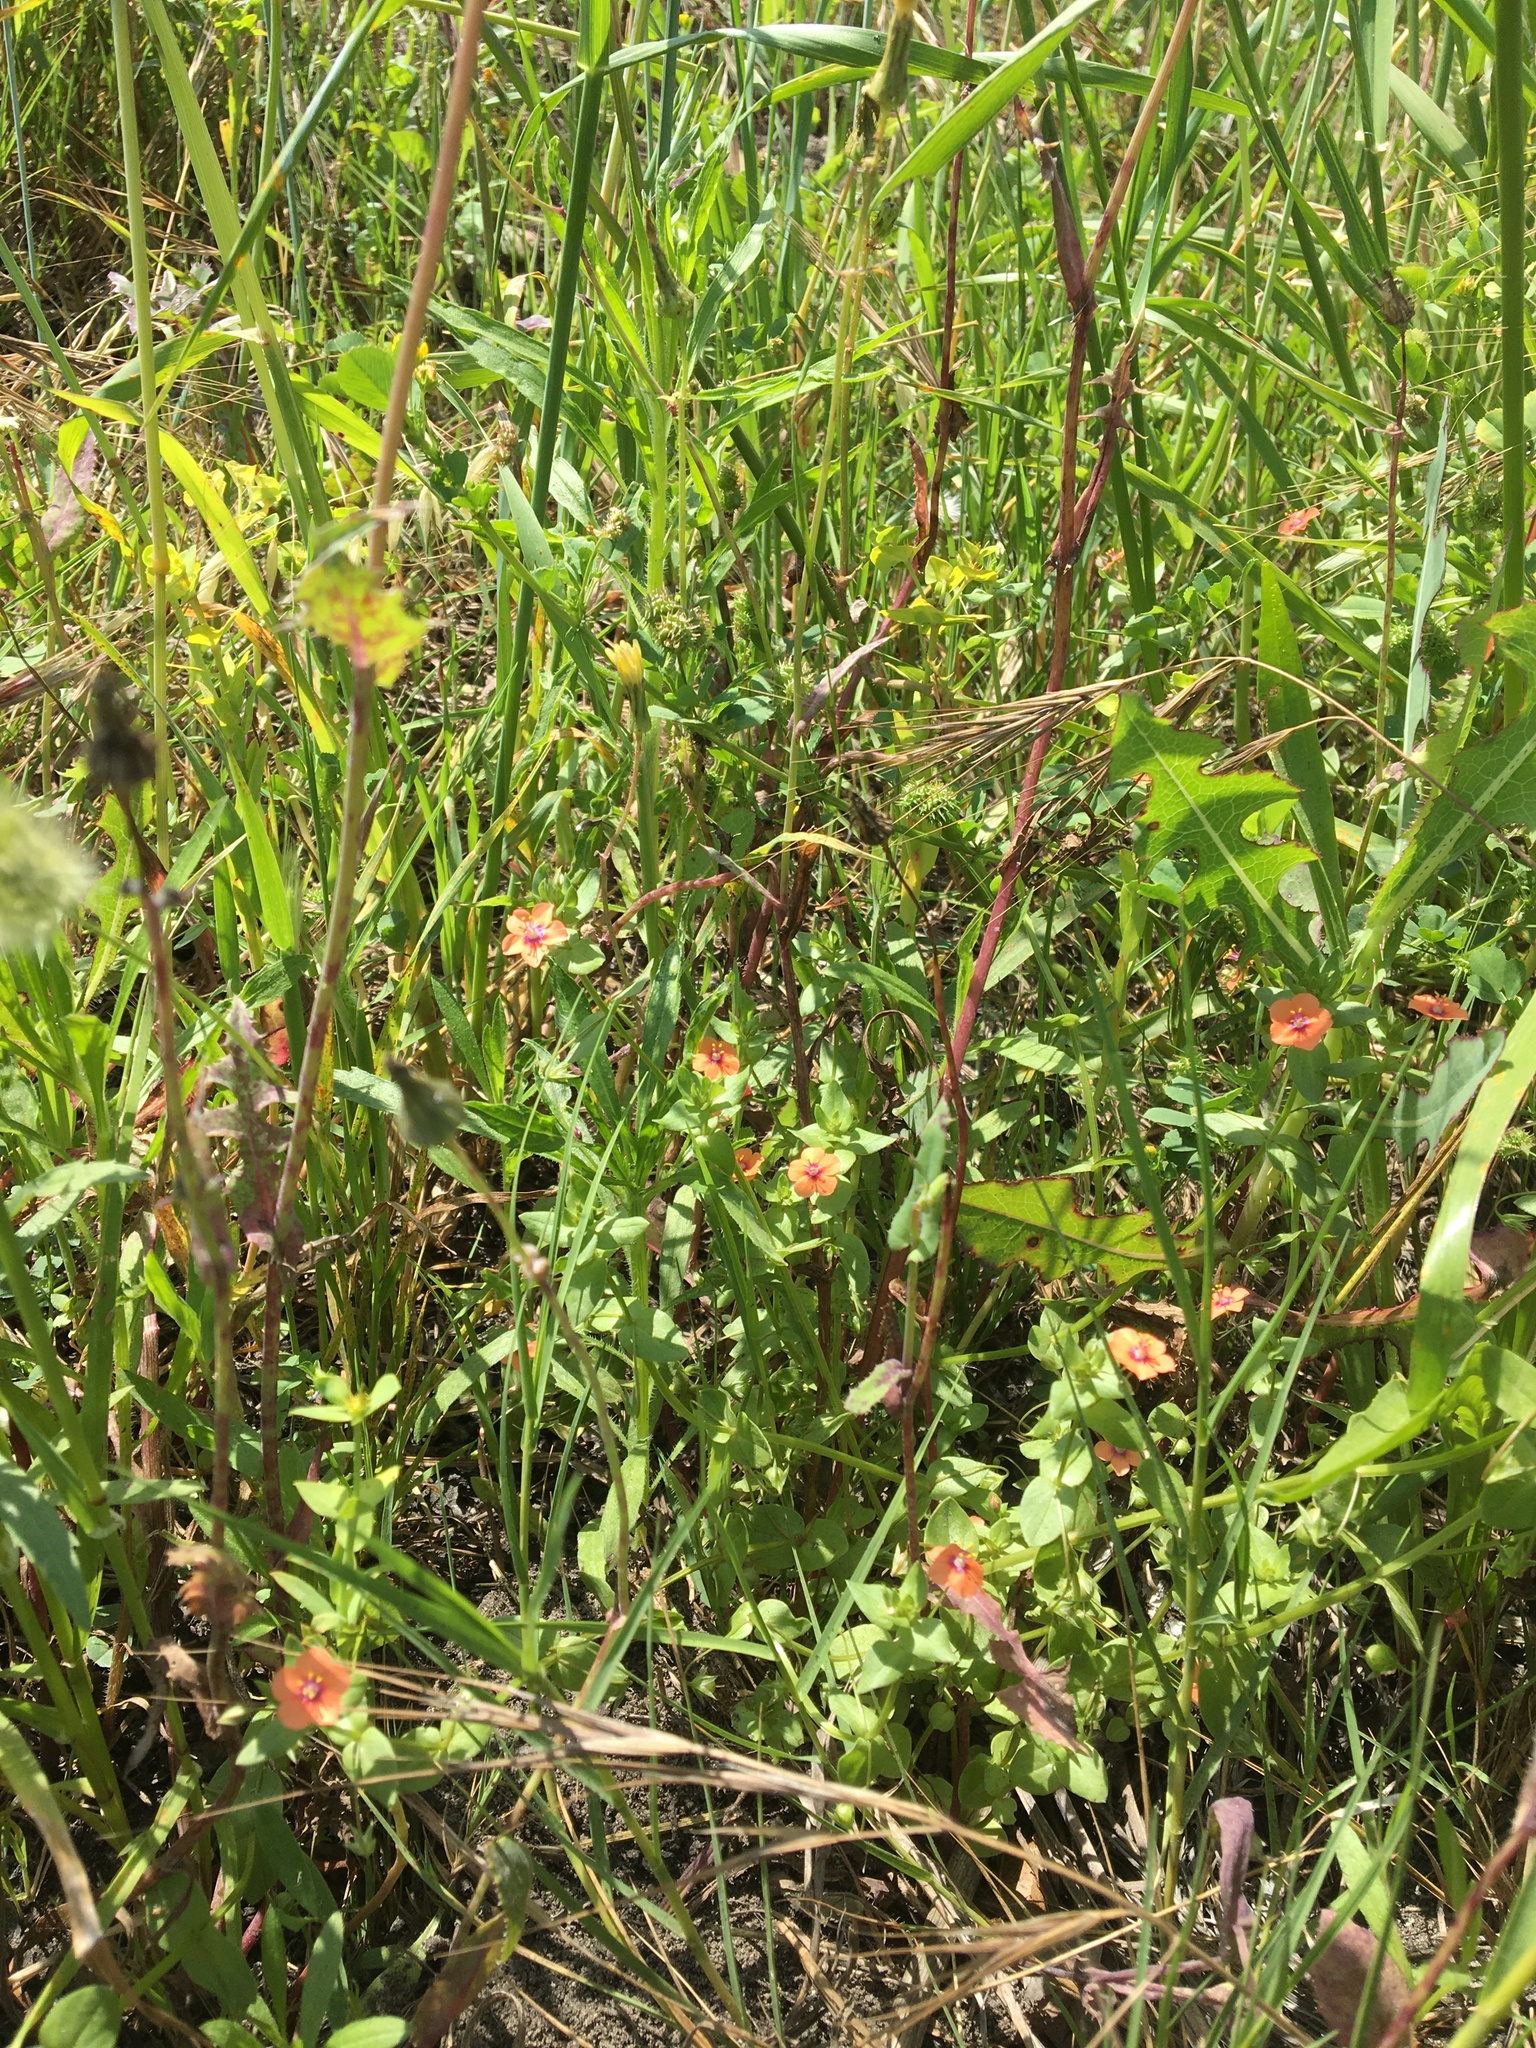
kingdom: Plantae
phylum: Tracheophyta
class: Magnoliopsida
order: Ericales
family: Primulaceae
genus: Lysimachia
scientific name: Lysimachia arvensis
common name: Scarlet pimpernel
